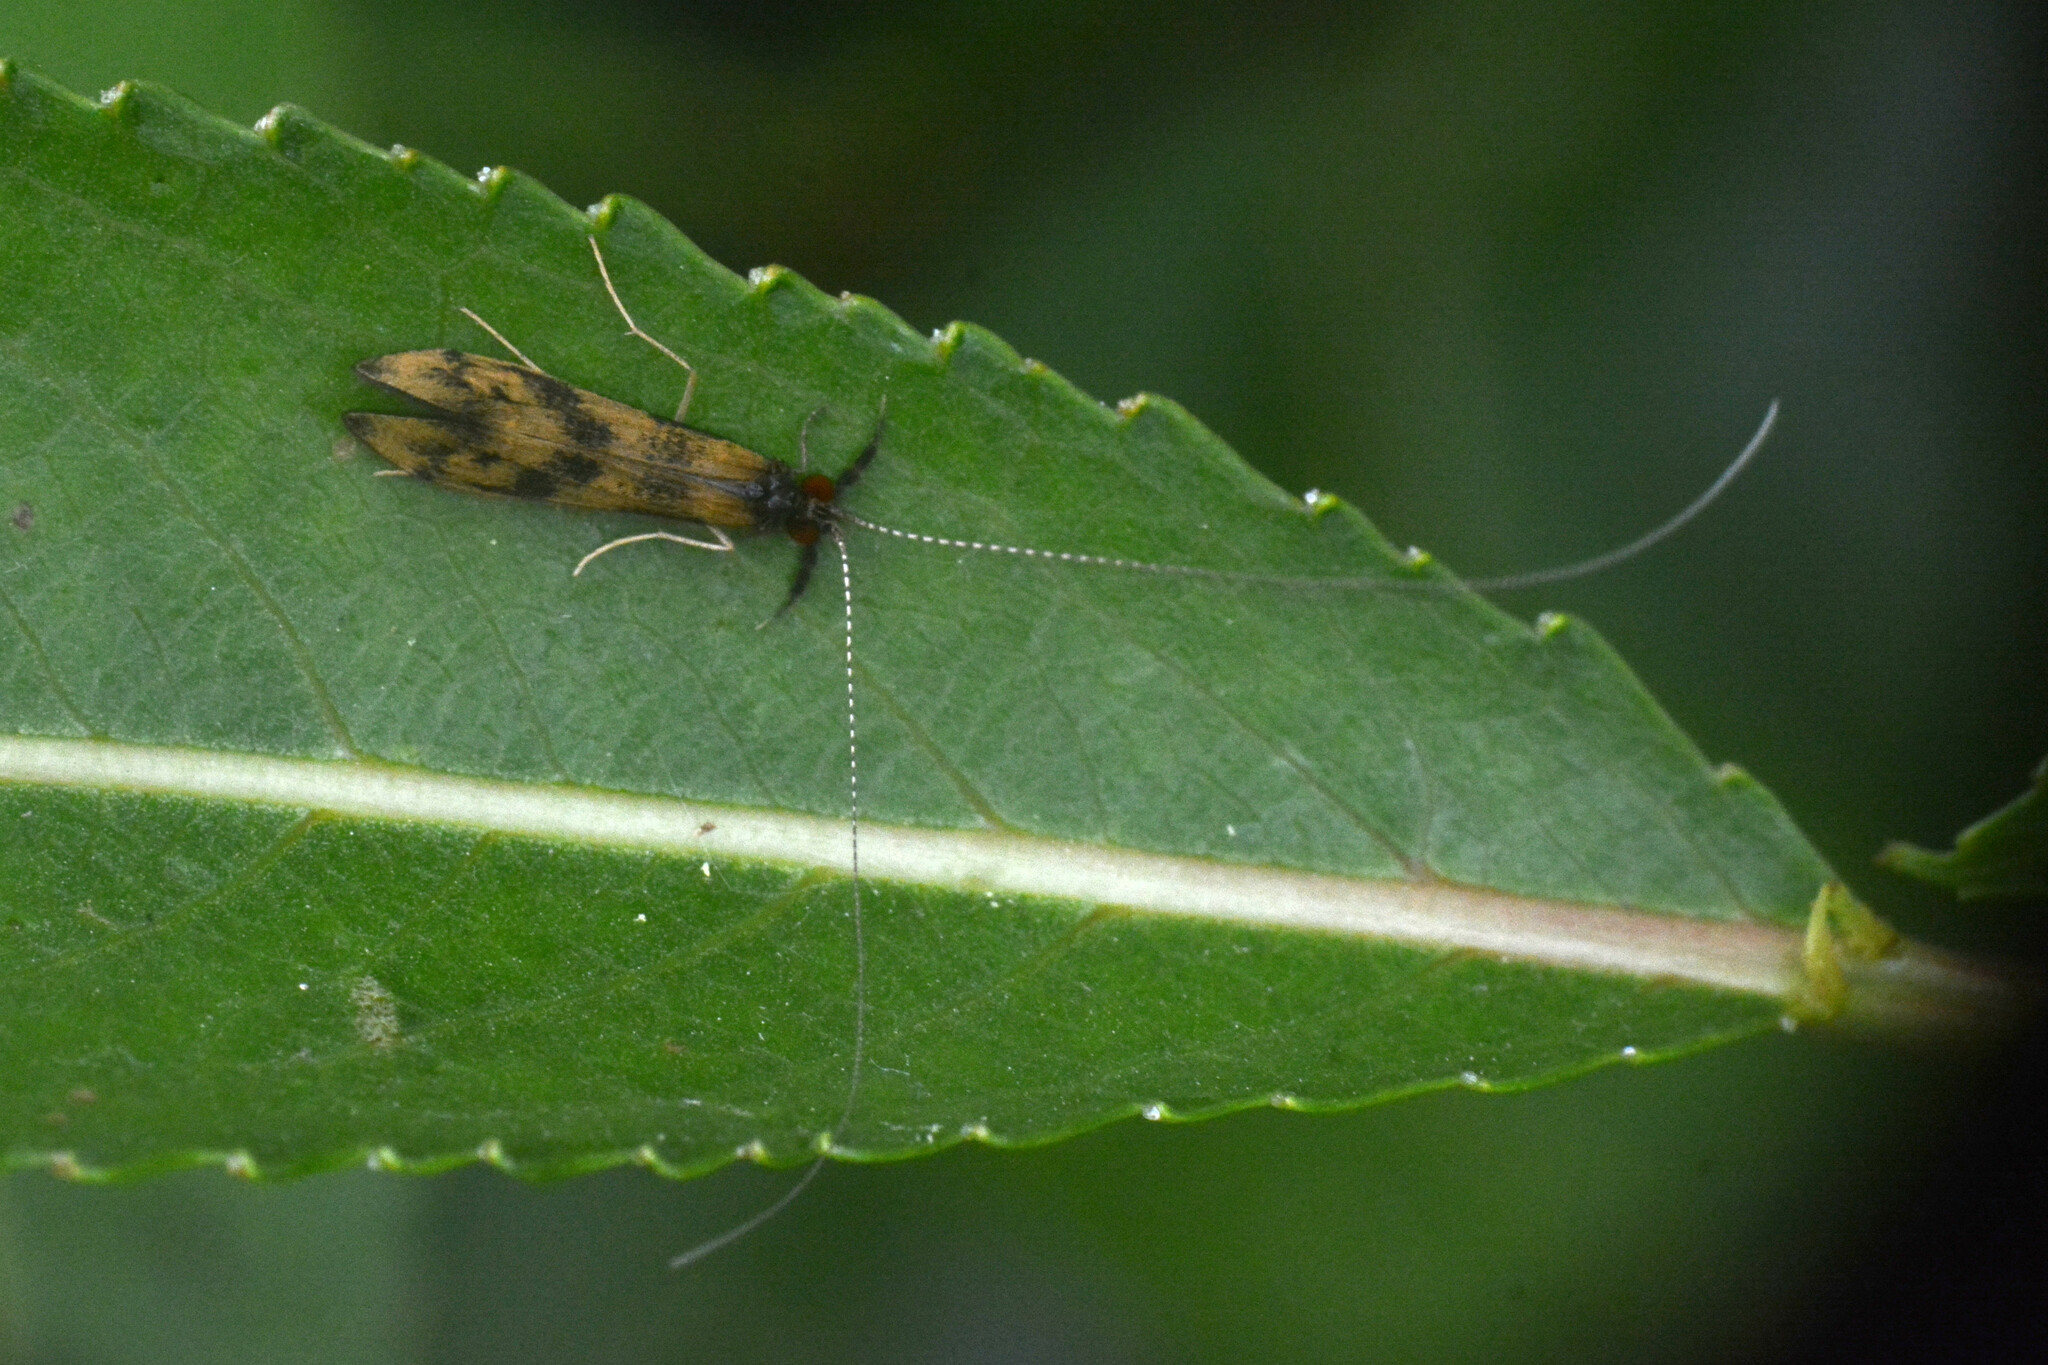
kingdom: Animalia
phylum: Arthropoda
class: Insecta
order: Trichoptera
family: Leptoceridae
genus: Mystacides
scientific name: Mystacides longicornis
